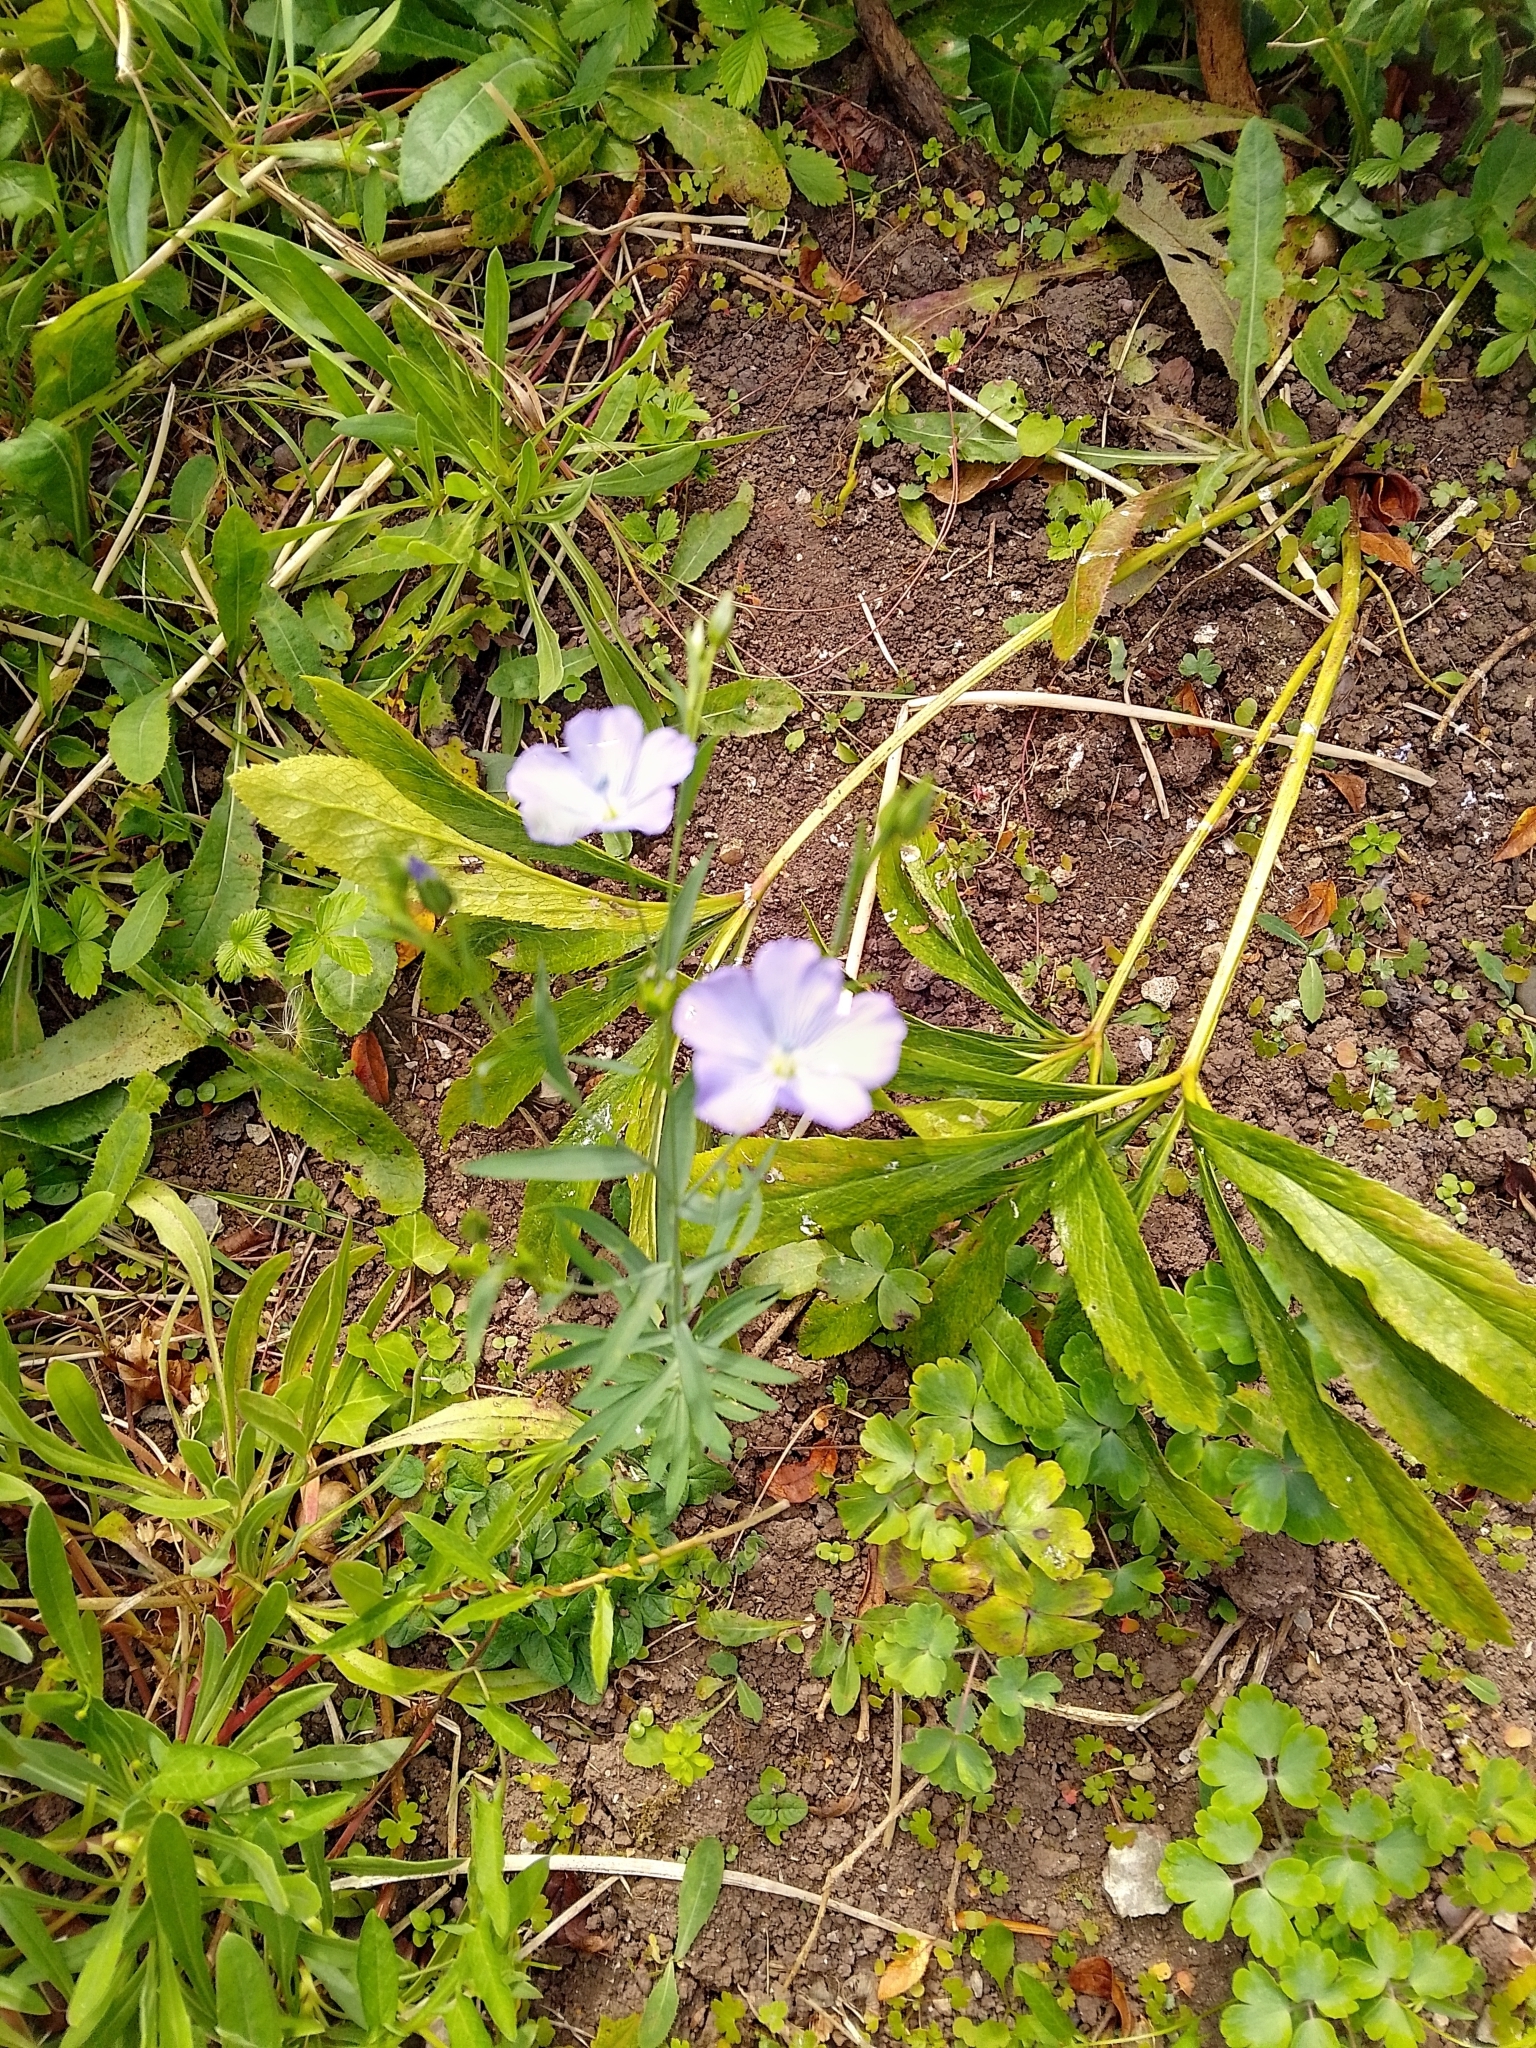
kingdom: Plantae
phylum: Tracheophyta
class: Magnoliopsida
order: Malpighiales
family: Linaceae
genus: Linum
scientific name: Linum usitatissimum
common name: Flax
